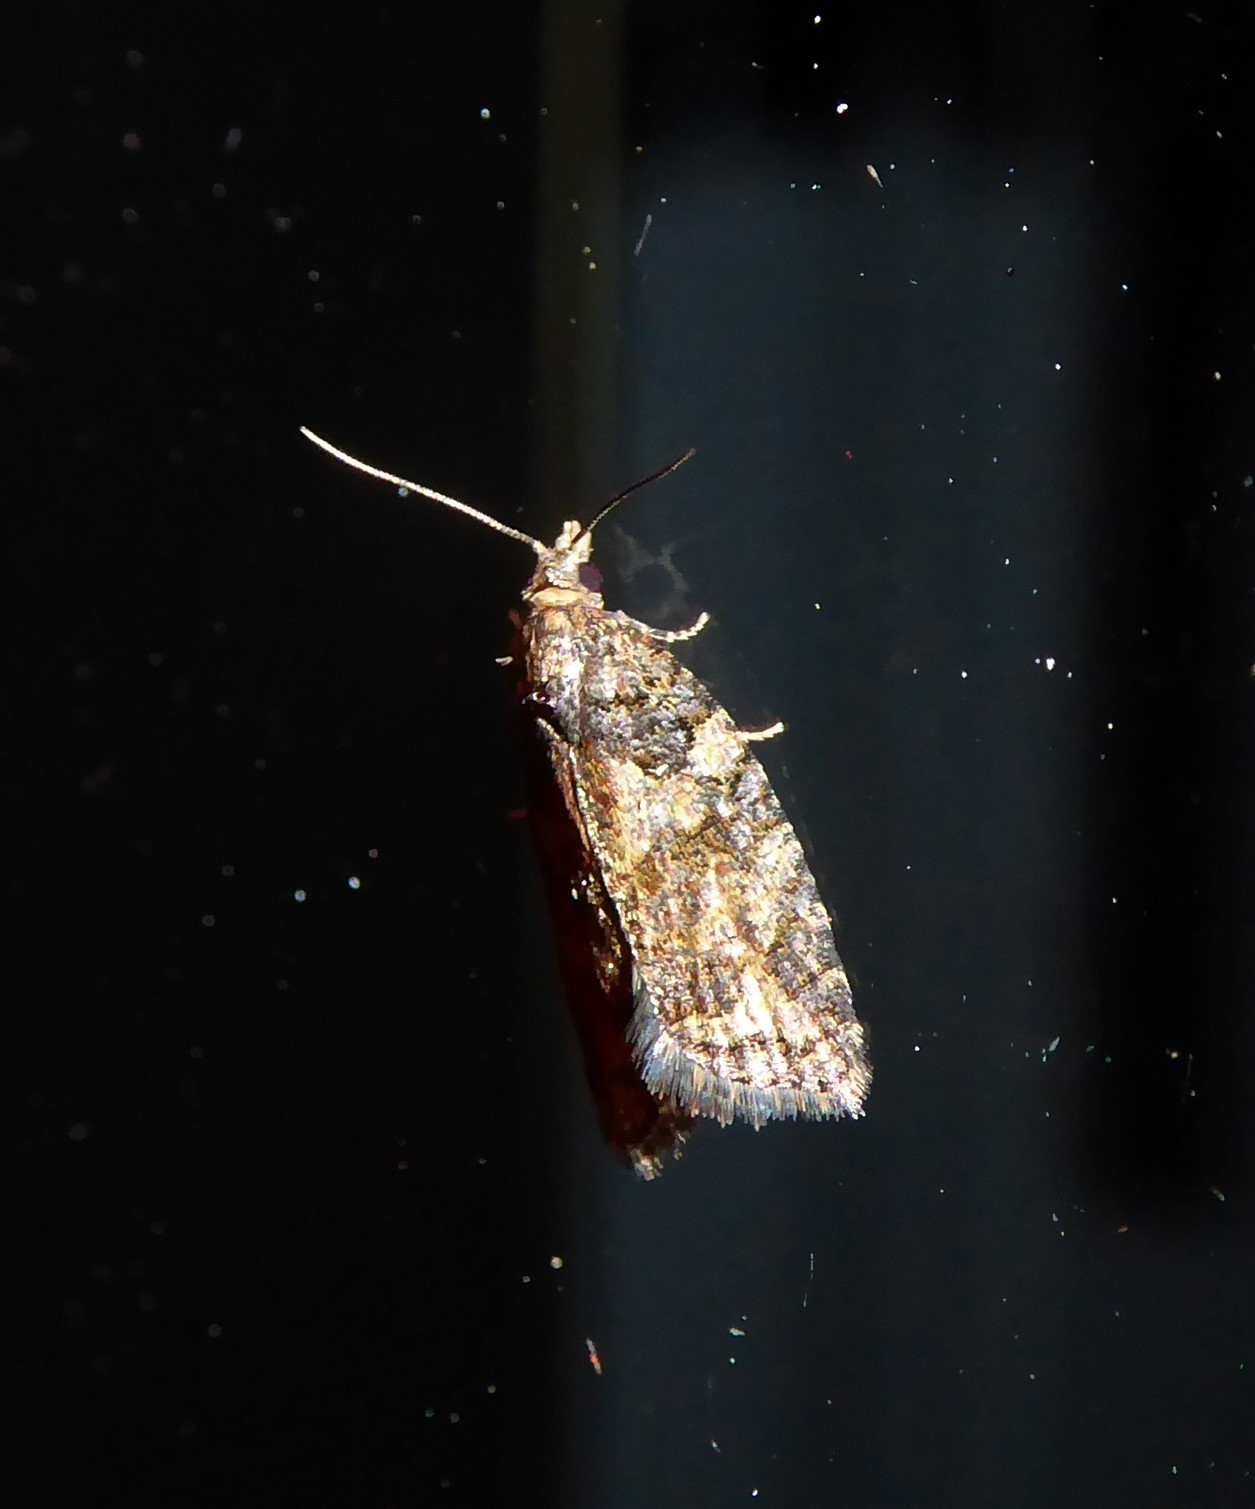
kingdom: Animalia
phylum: Arthropoda
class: Insecta
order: Lepidoptera
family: Tortricidae
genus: Capua
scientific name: Capua intractana
